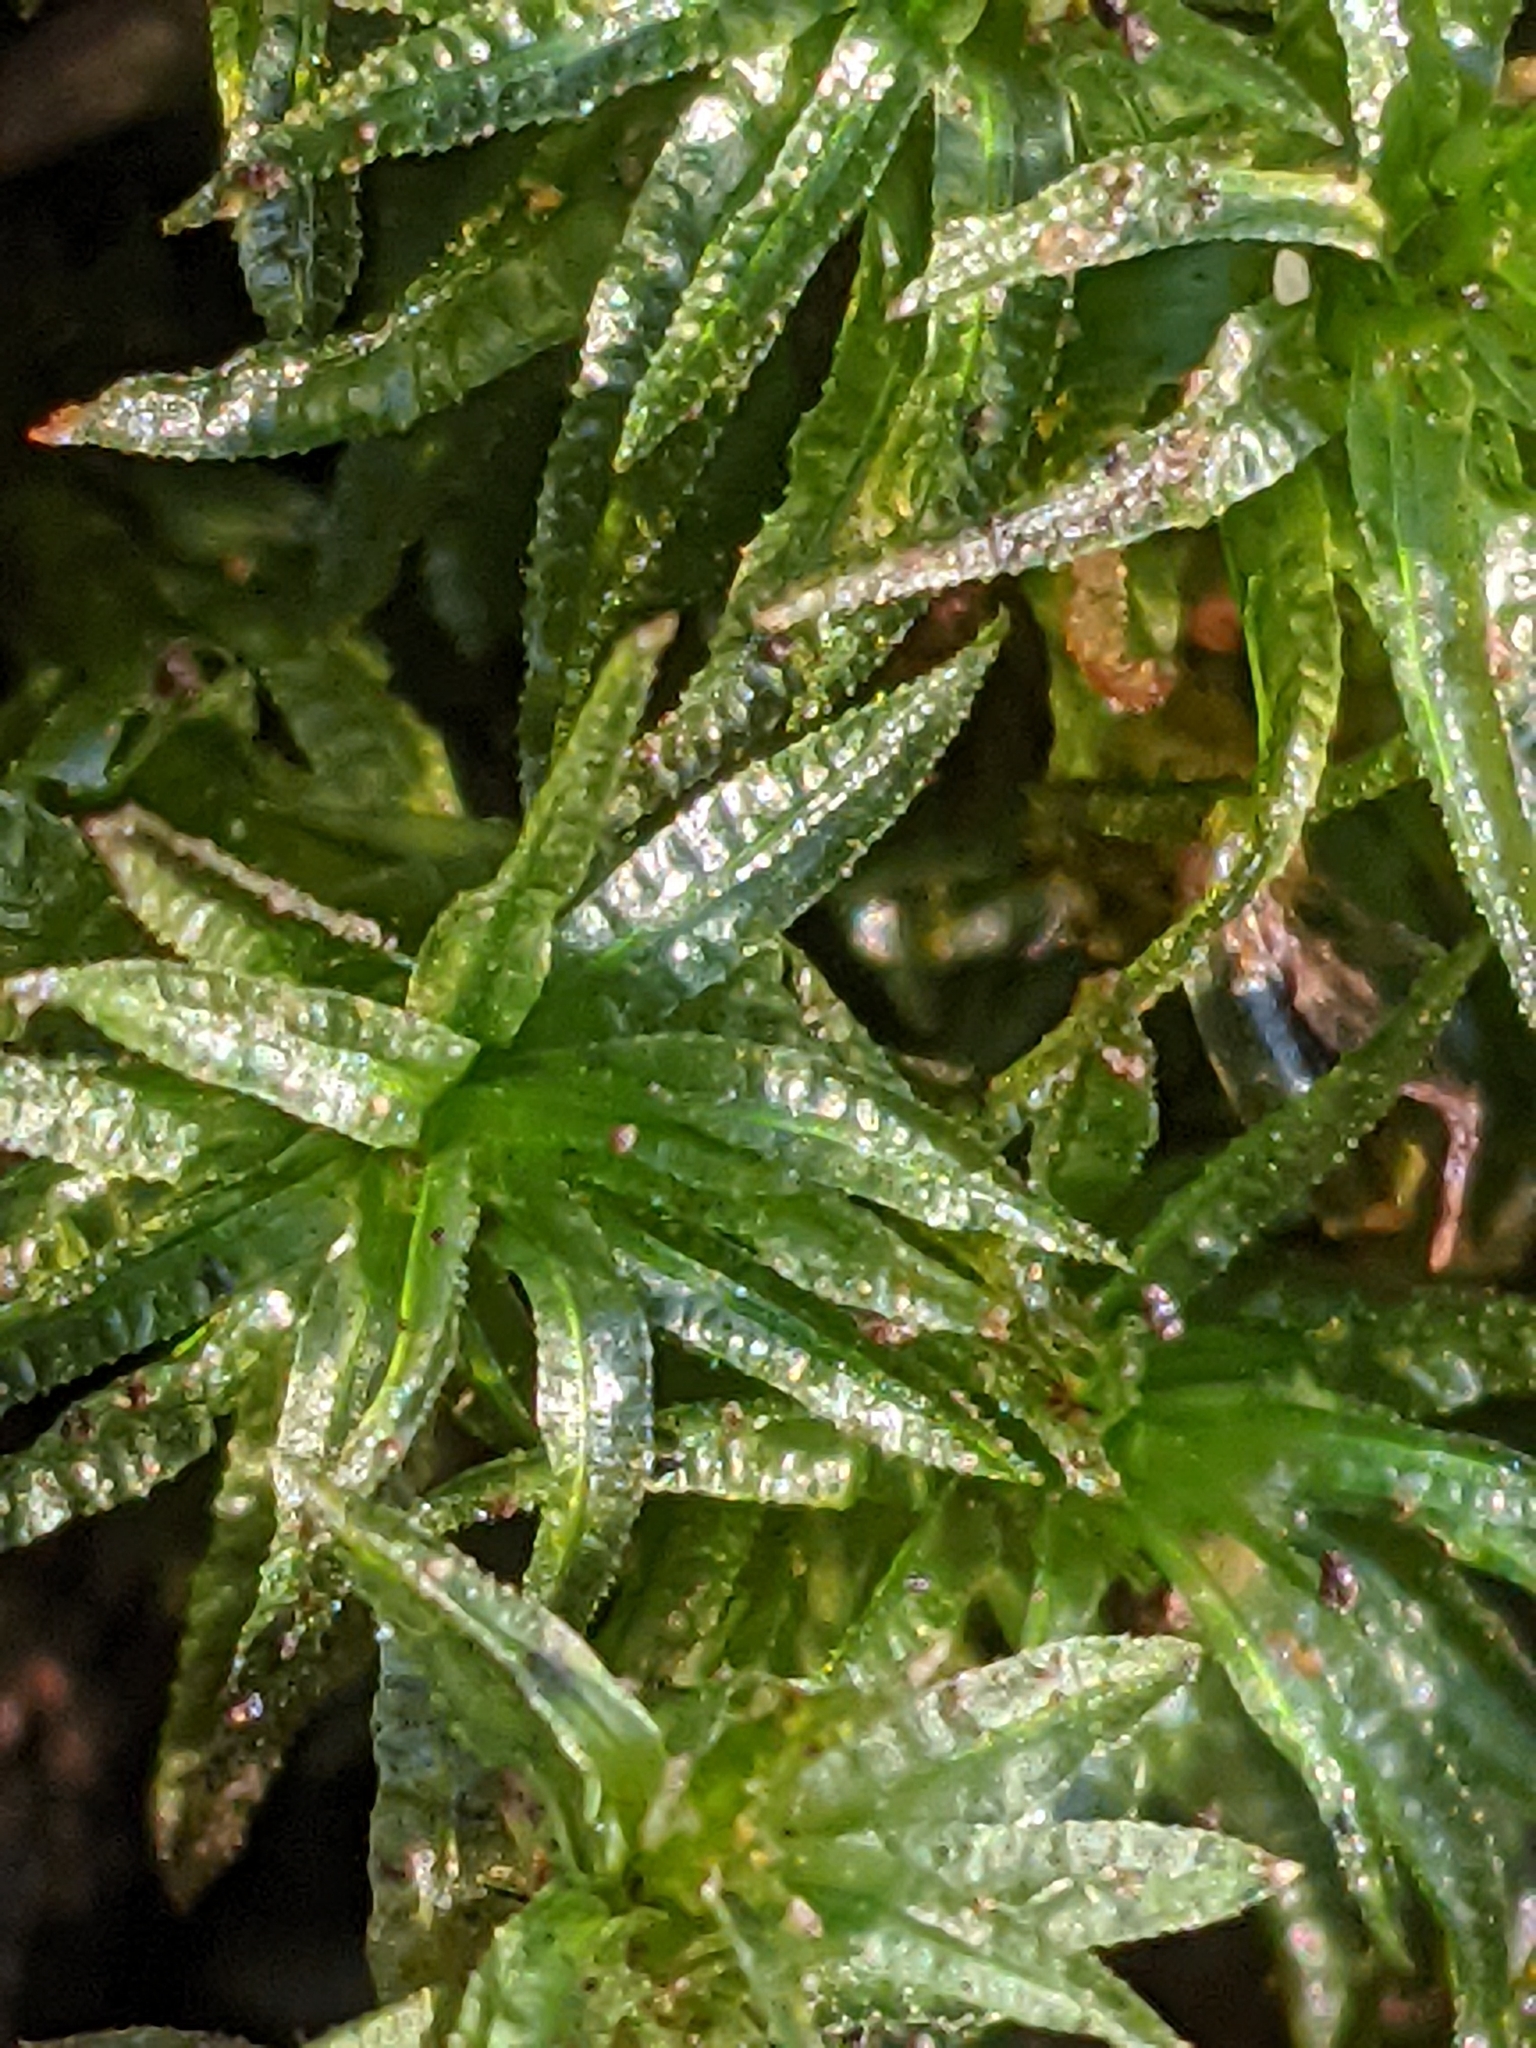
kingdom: Plantae
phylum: Bryophyta
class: Polytrichopsida
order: Polytrichales
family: Polytrichaceae
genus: Atrichum
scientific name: Atrichum undulatum
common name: Common smoothcap
